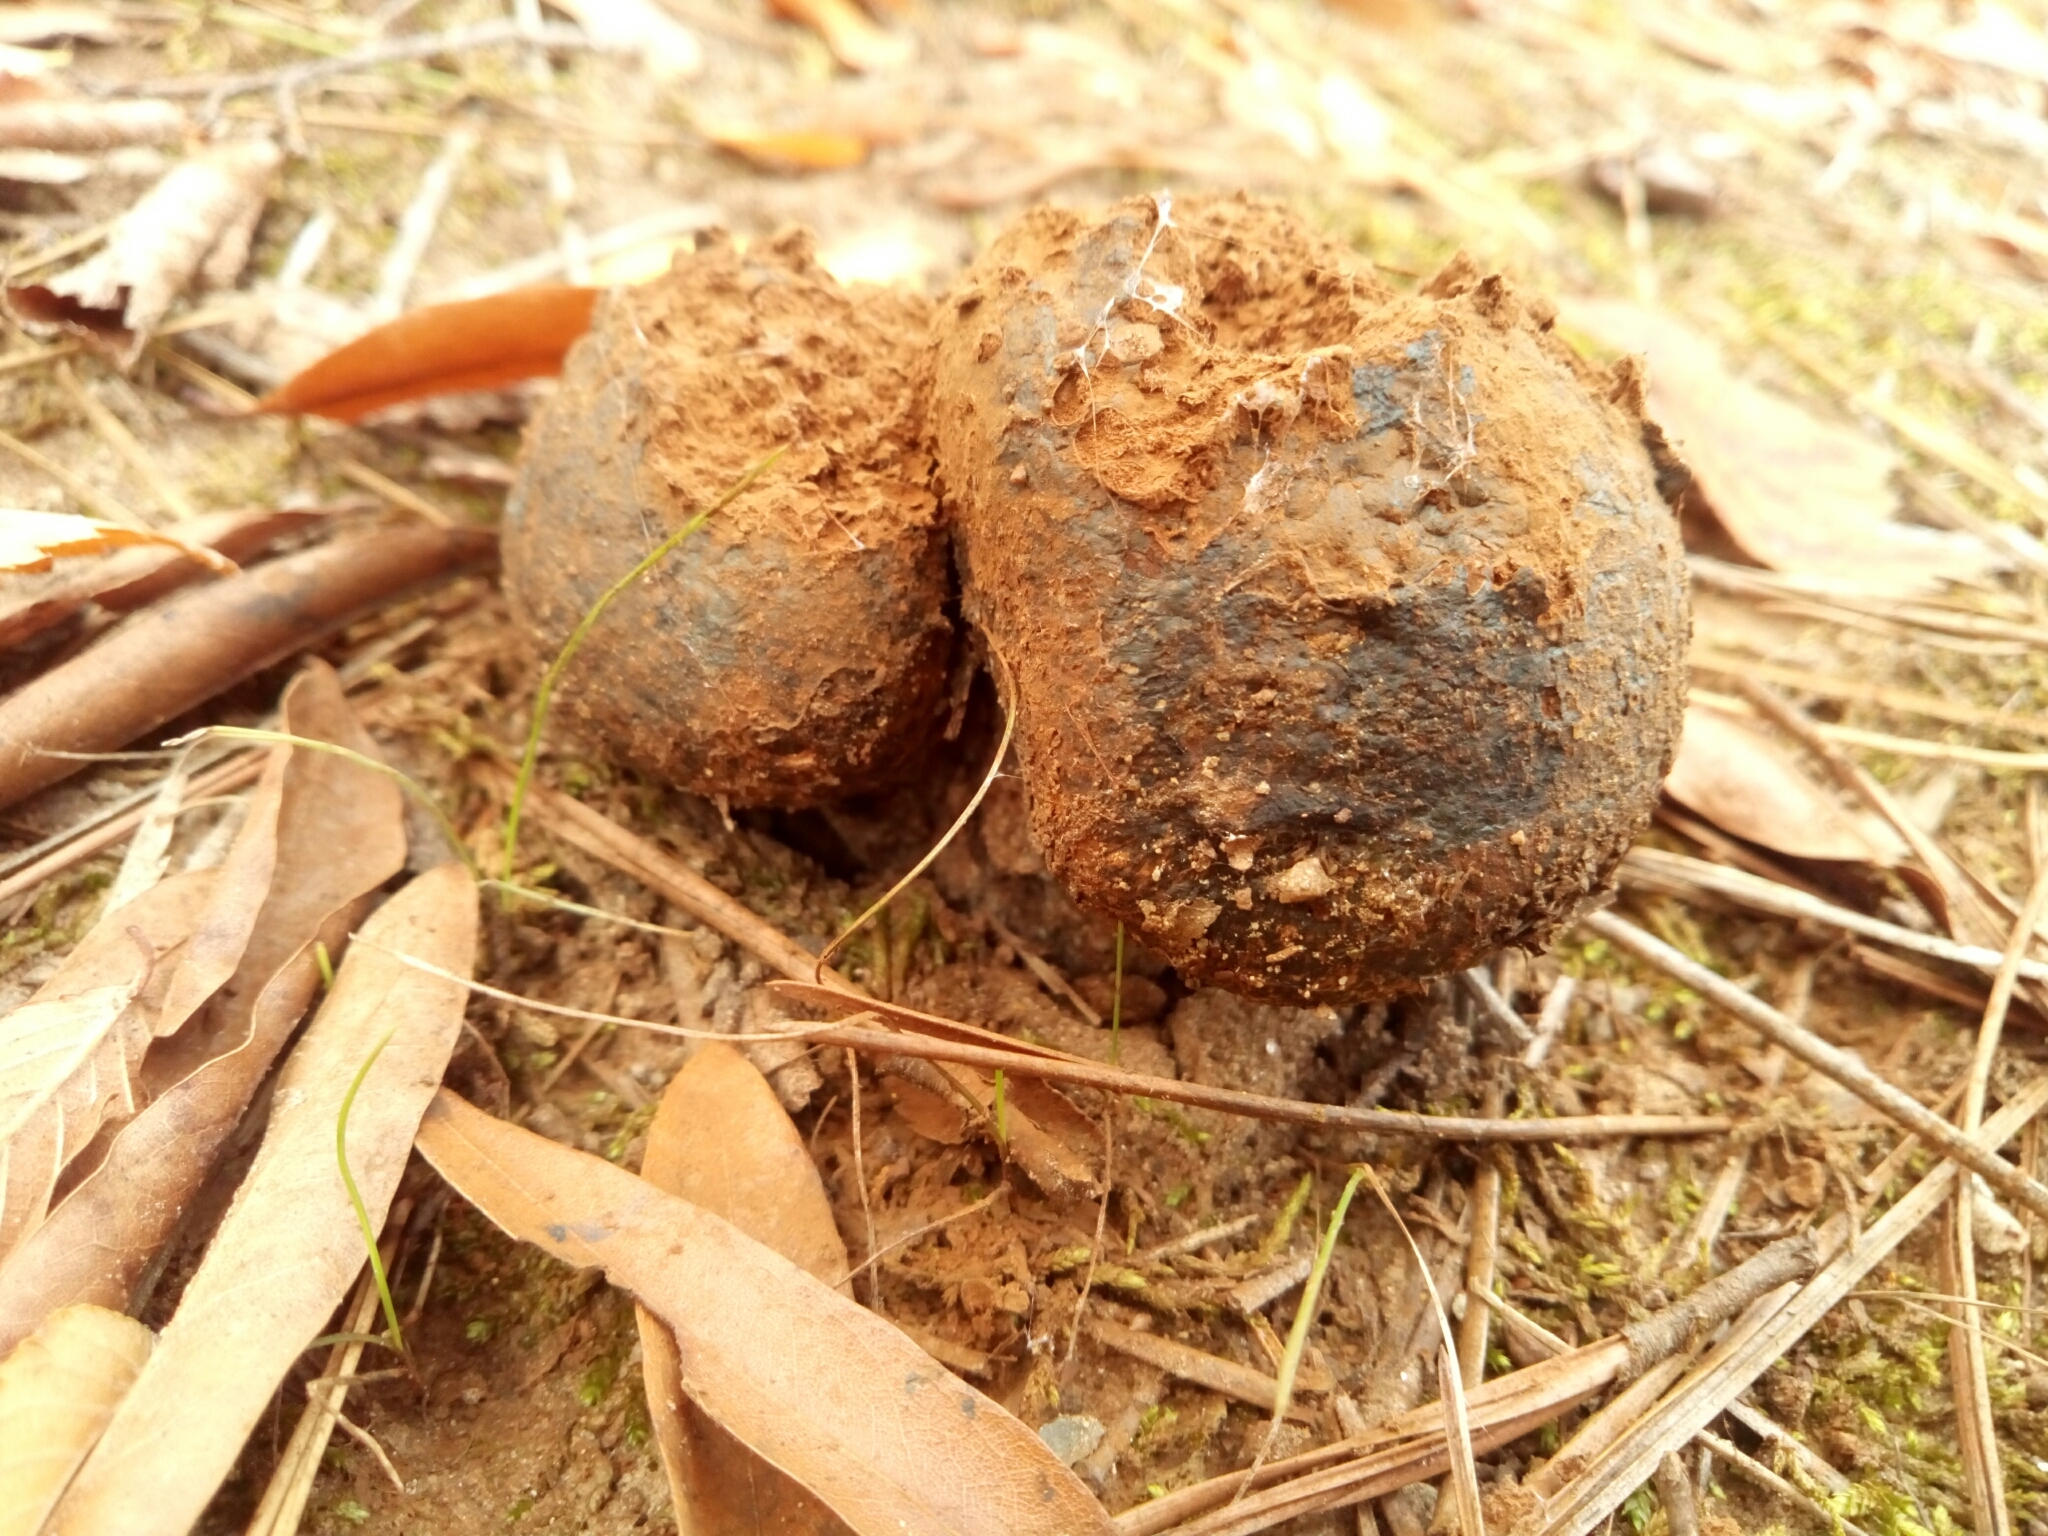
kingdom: Fungi
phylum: Basidiomycota
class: Agaricomycetes
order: Boletales
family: Sclerodermataceae
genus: Pisolithus
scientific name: Pisolithus arhizus
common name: Dyeball
